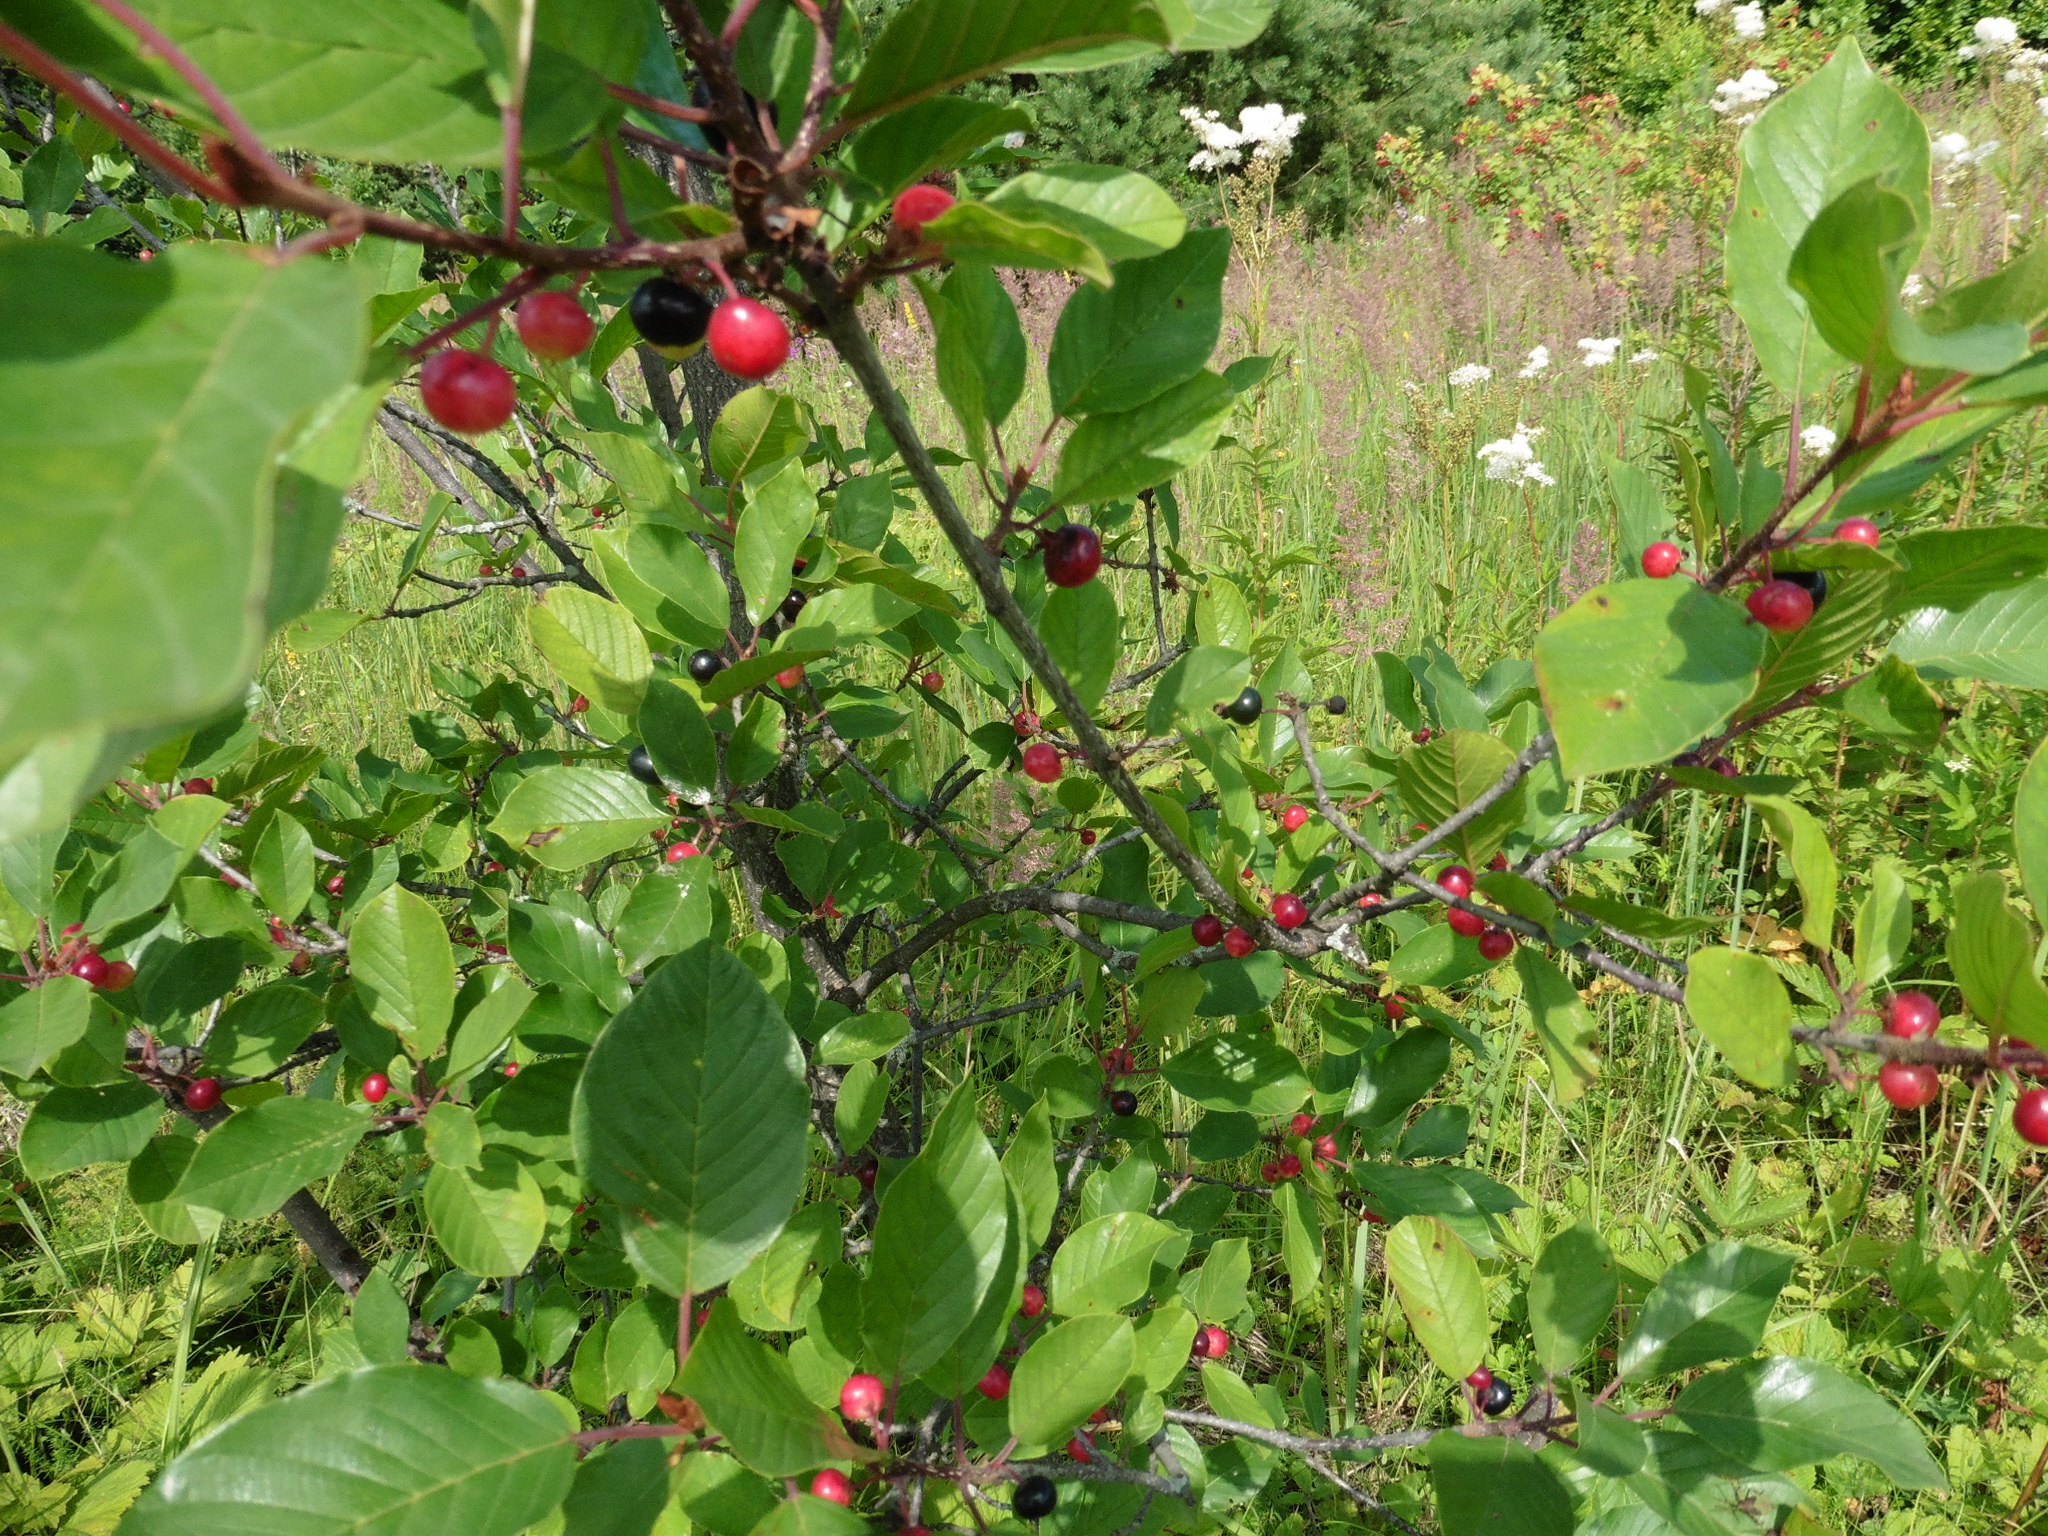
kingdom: Plantae
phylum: Tracheophyta
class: Magnoliopsida
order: Rosales
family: Rhamnaceae
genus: Frangula
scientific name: Frangula alnus
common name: Alder buckthorn
